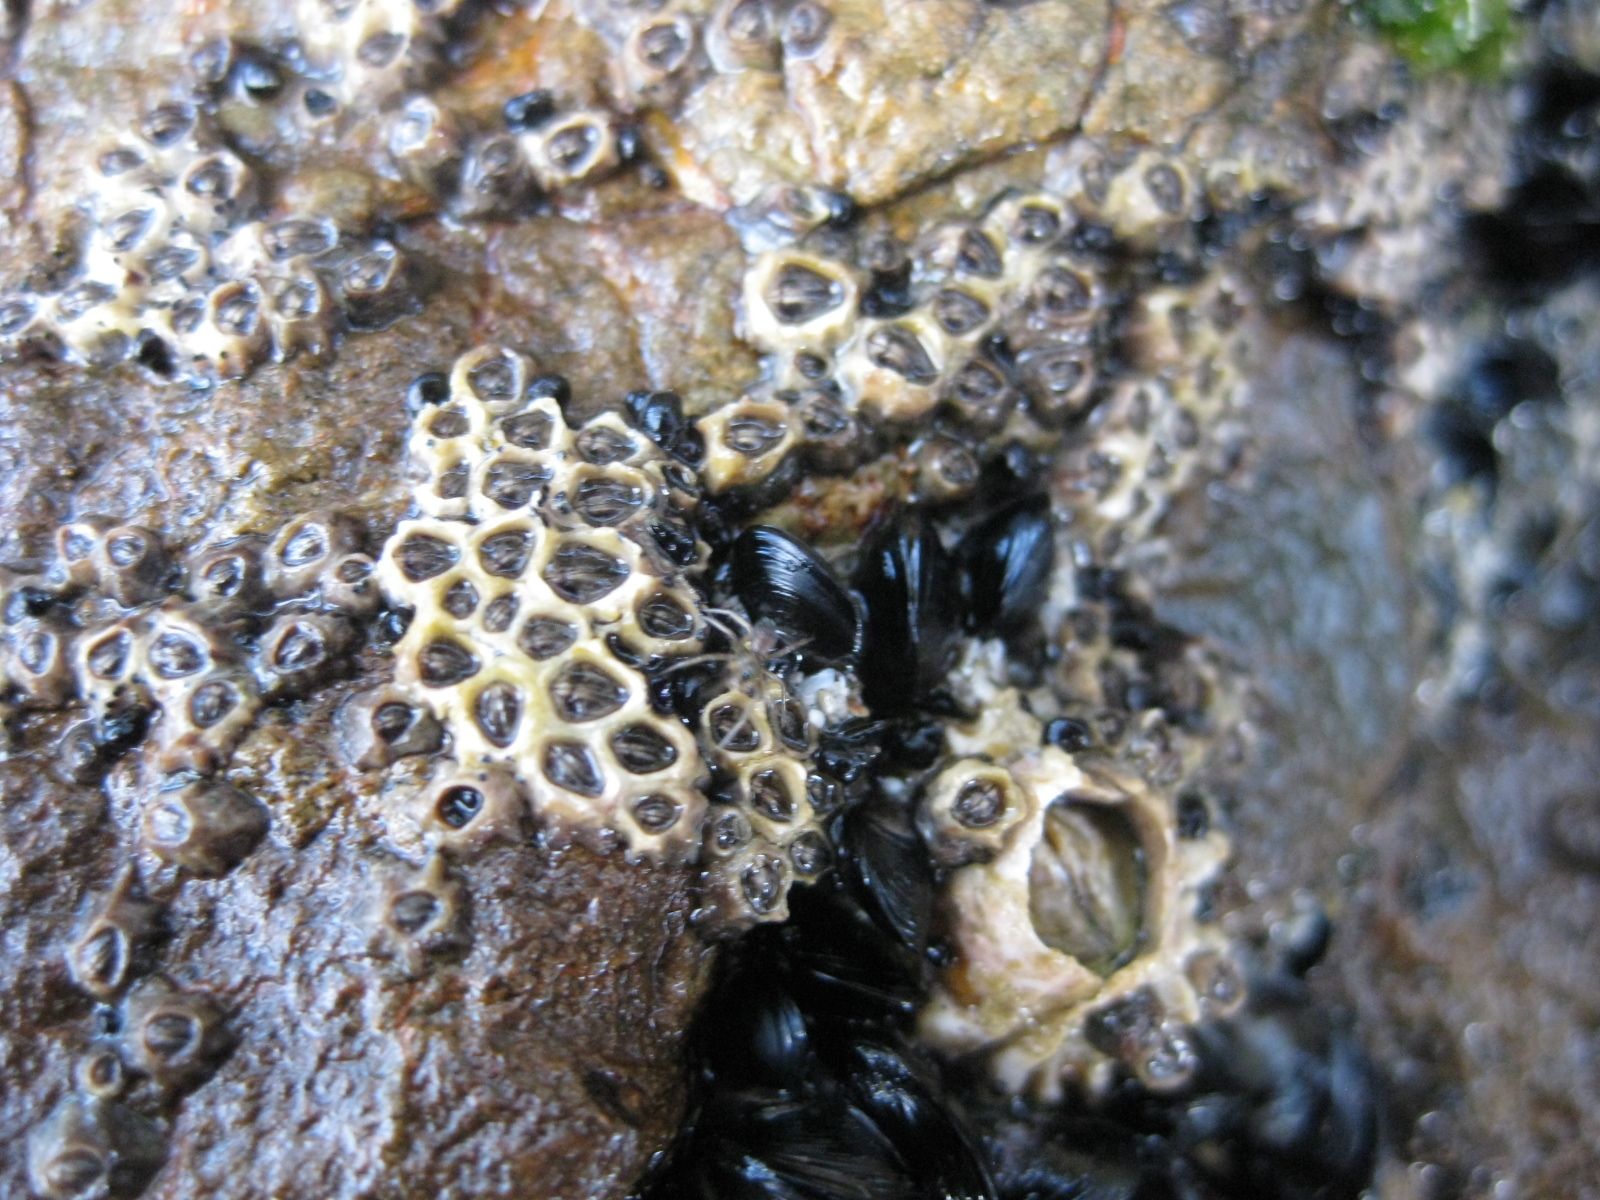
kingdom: Animalia
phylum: Mollusca
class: Bivalvia
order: Mytilida
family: Mytilidae
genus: Xenostrobus
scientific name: Xenostrobus neozelanicus
